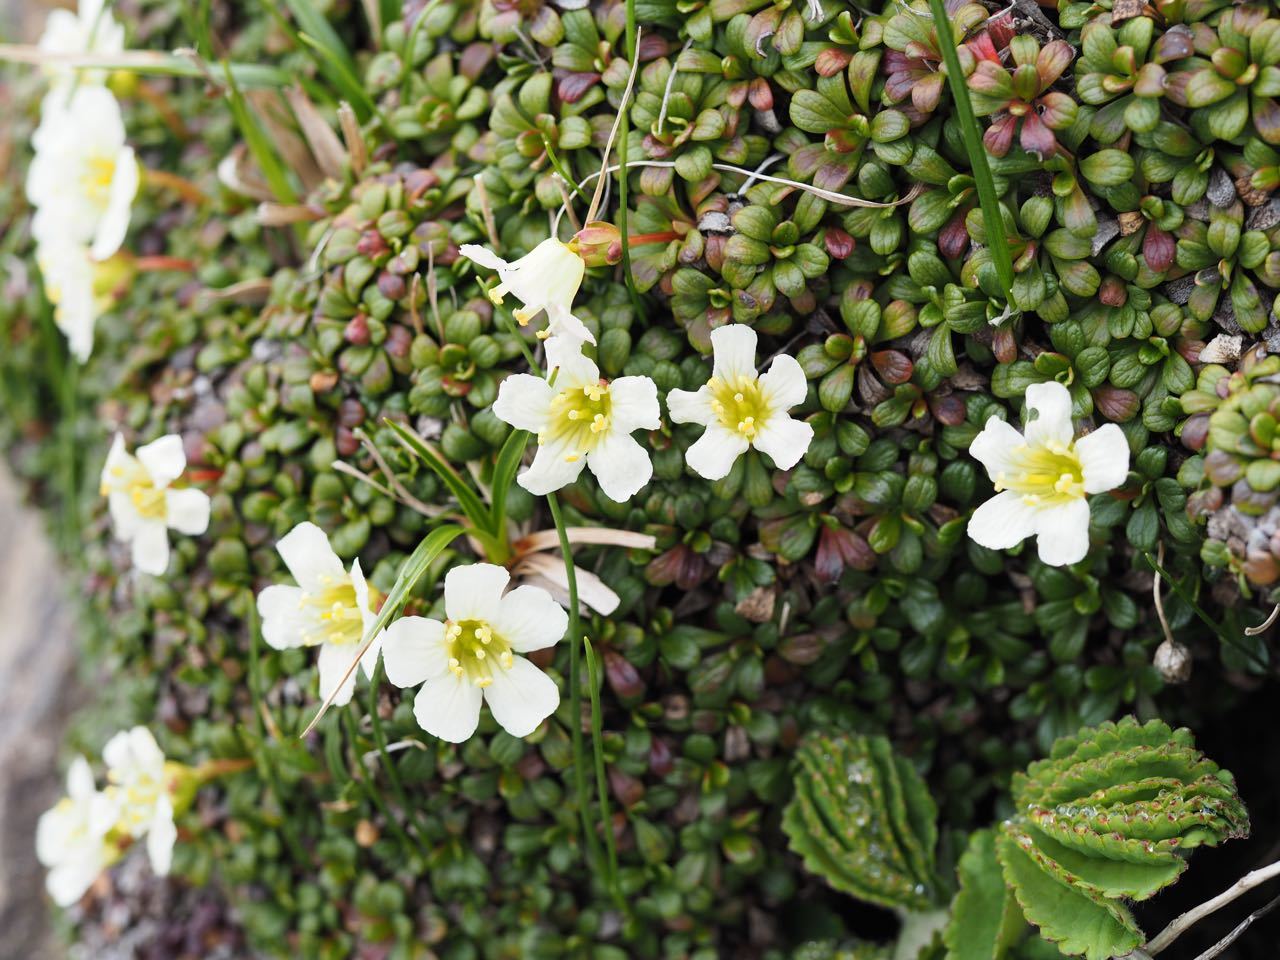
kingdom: Plantae
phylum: Tracheophyta
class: Magnoliopsida
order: Ericales
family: Diapensiaceae
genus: Diapensia
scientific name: Diapensia obovata
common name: Alaska diapensia
